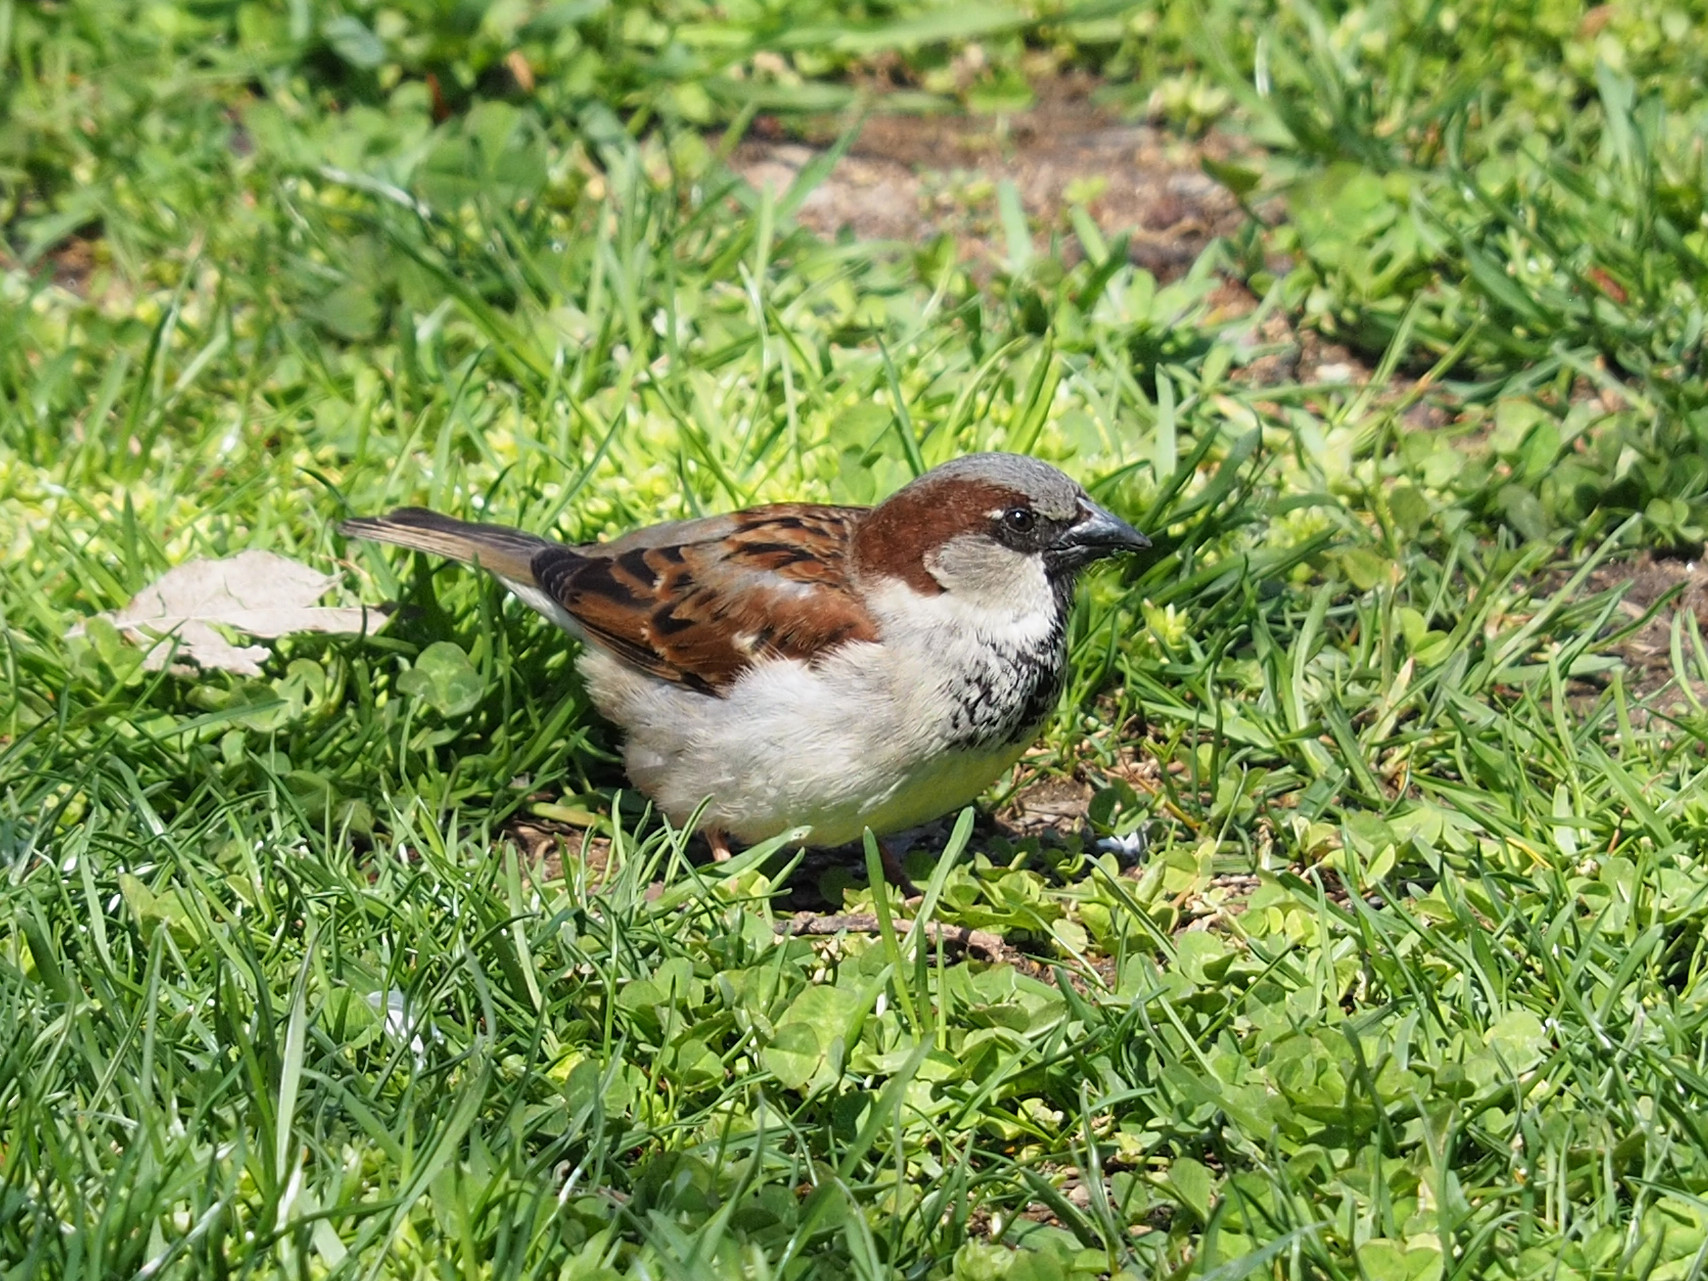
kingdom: Animalia
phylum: Chordata
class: Aves
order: Passeriformes
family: Passeridae
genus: Passer
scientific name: Passer domesticus
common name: House sparrow
